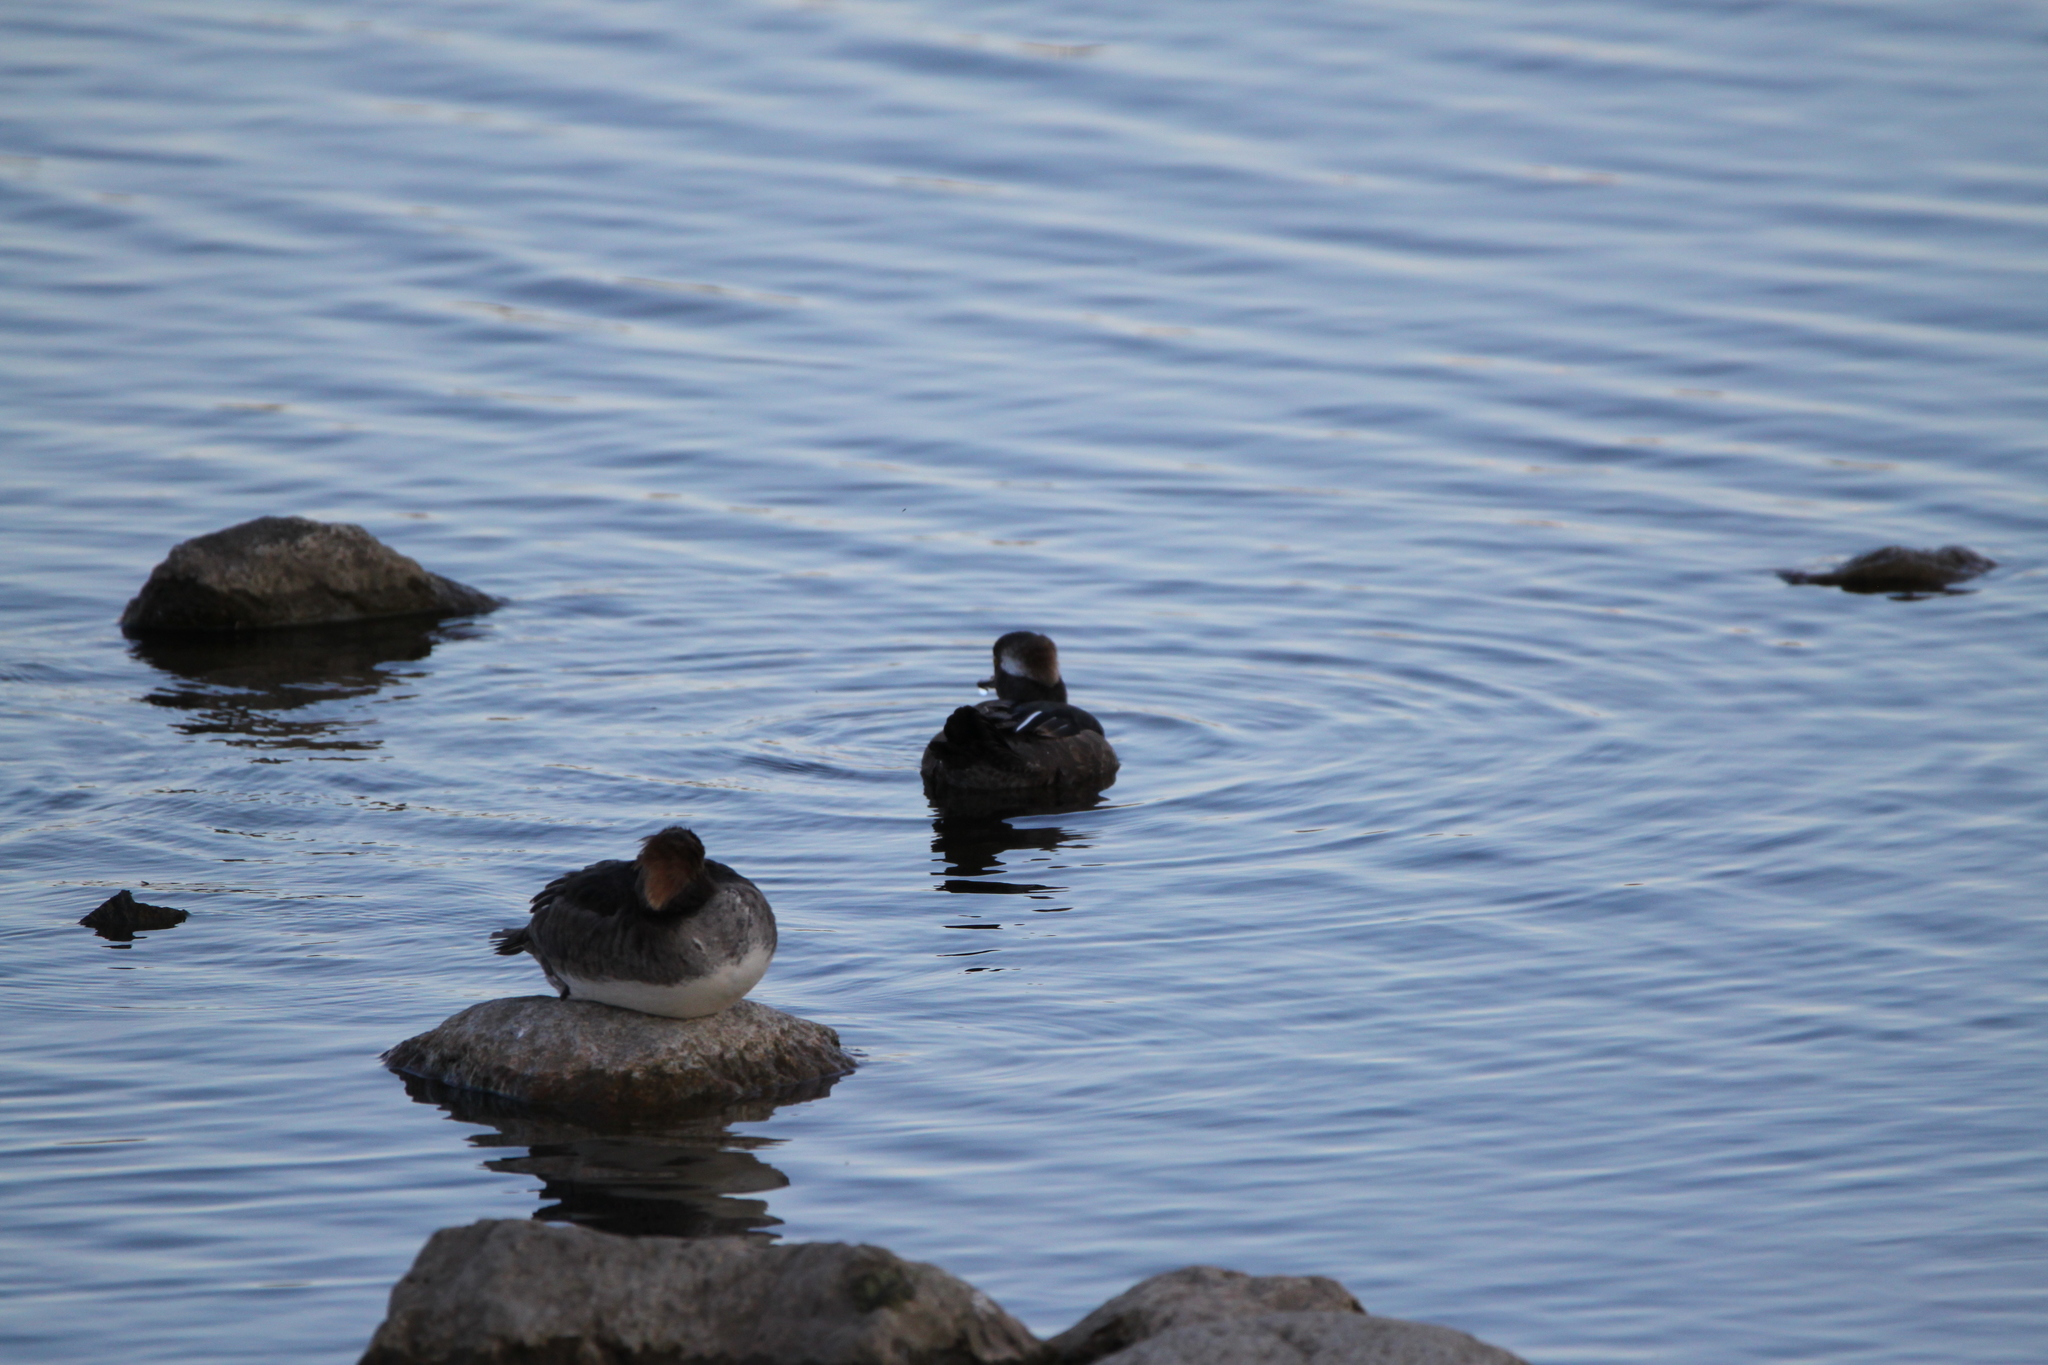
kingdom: Animalia
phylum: Chordata
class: Aves
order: Anseriformes
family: Anatidae
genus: Lophodytes
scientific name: Lophodytes cucullatus
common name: Hooded merganser
